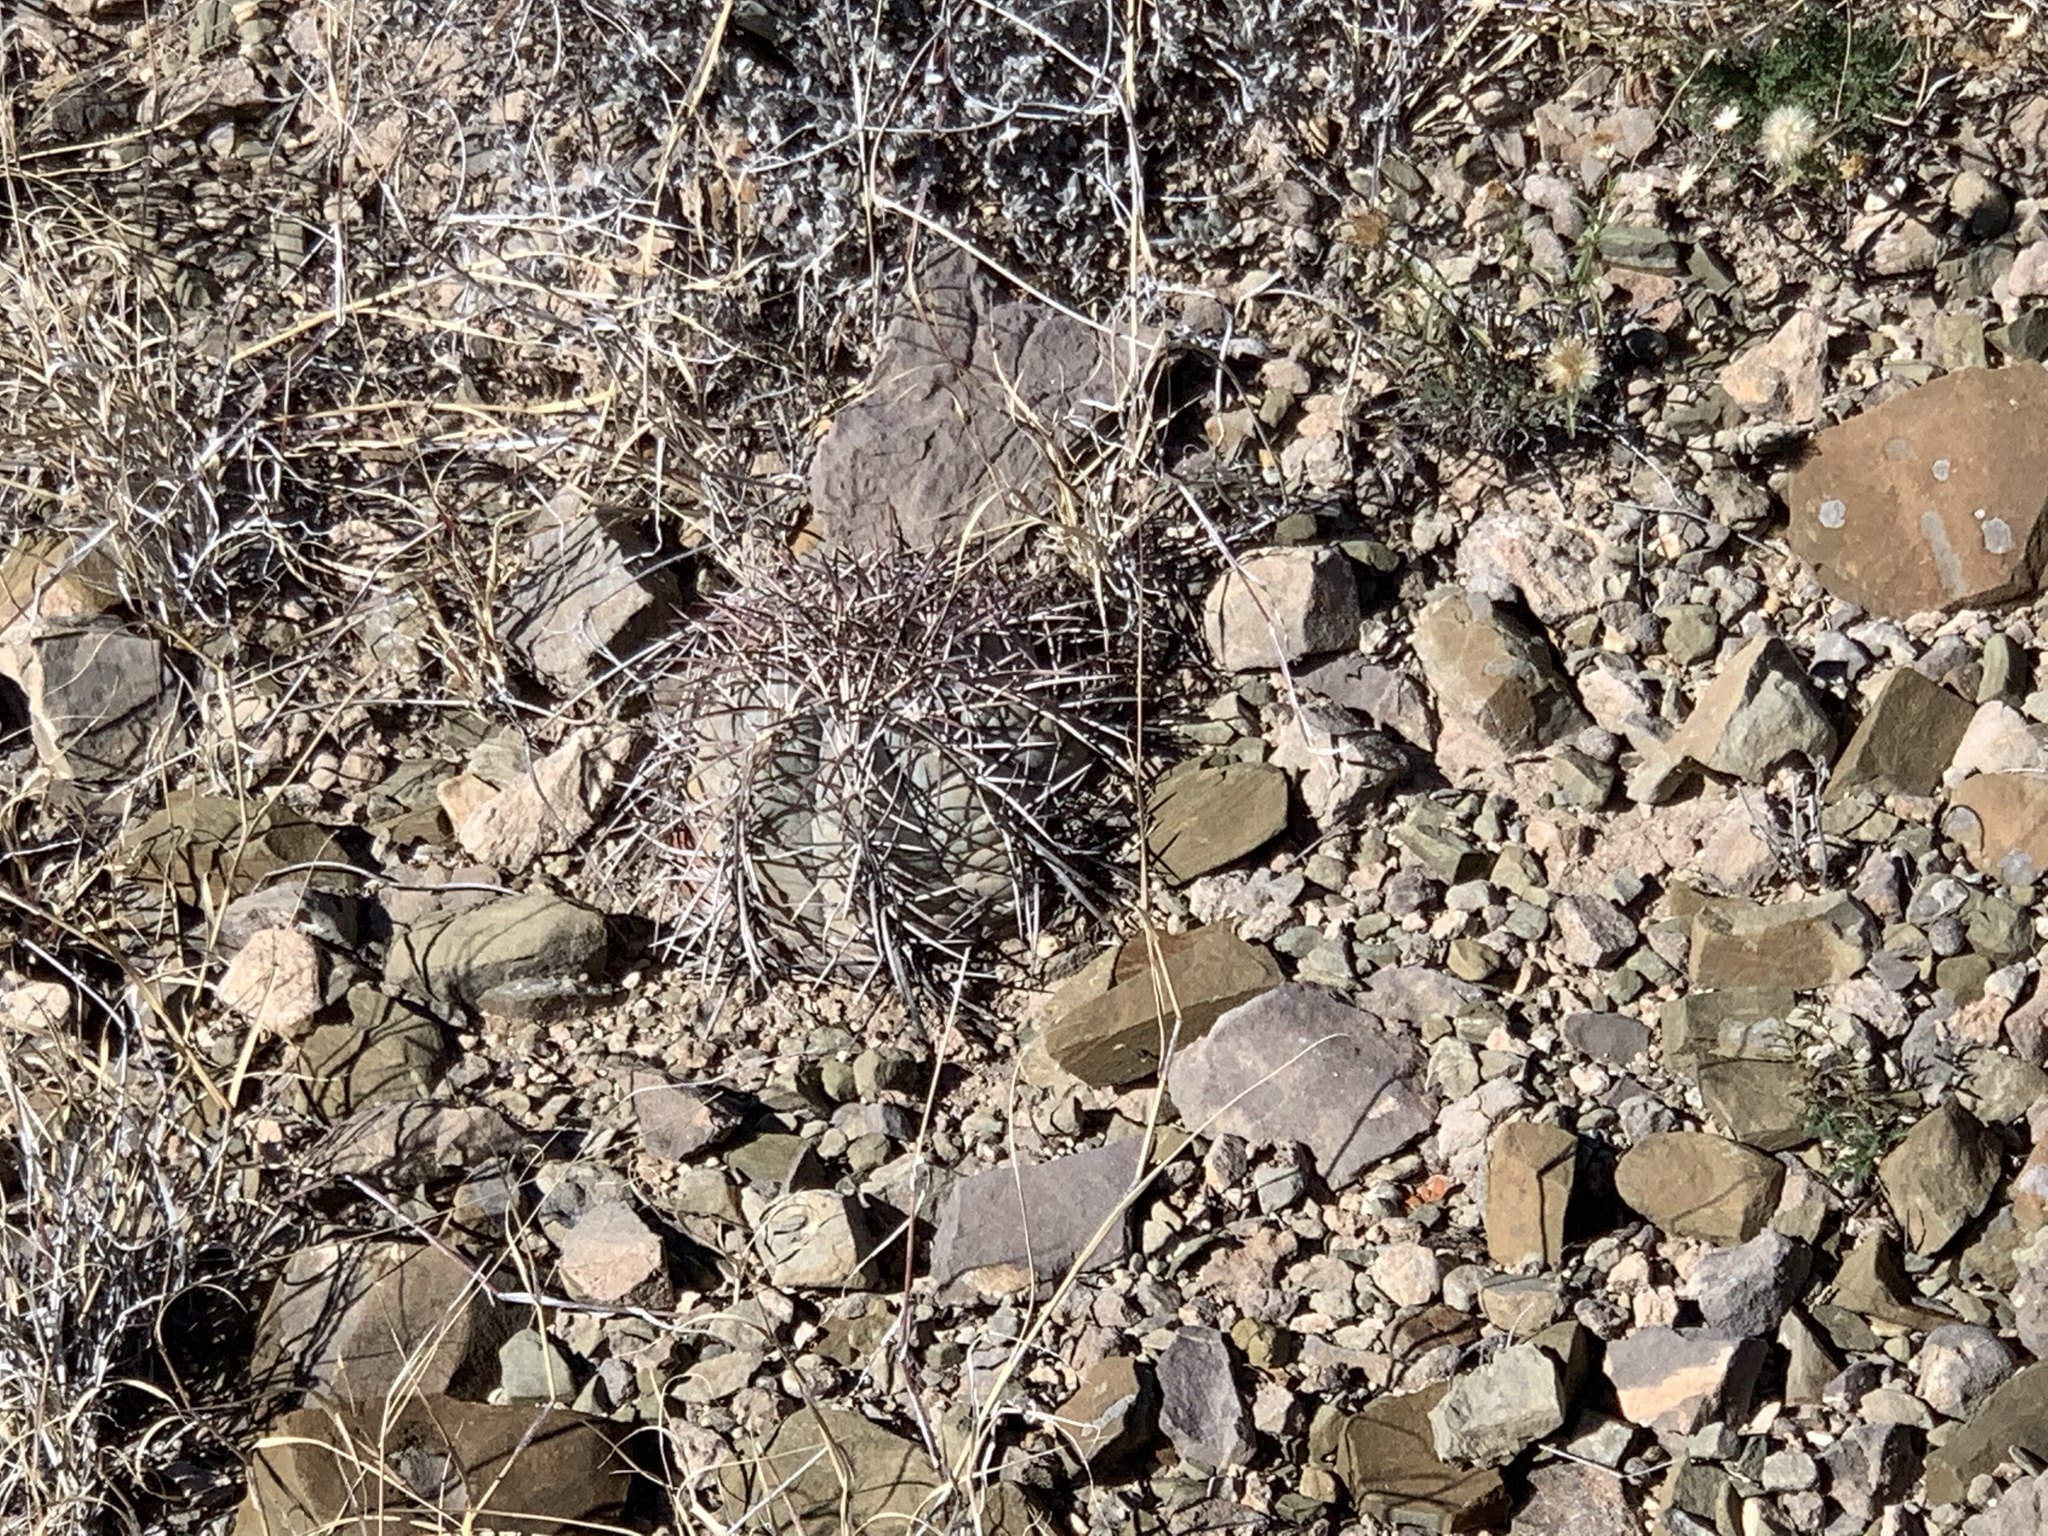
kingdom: Plantae
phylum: Tracheophyta
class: Magnoliopsida
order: Caryophyllales
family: Cactaceae
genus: Echinocactus
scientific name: Echinocactus horizonthalonius
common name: Devilshead
